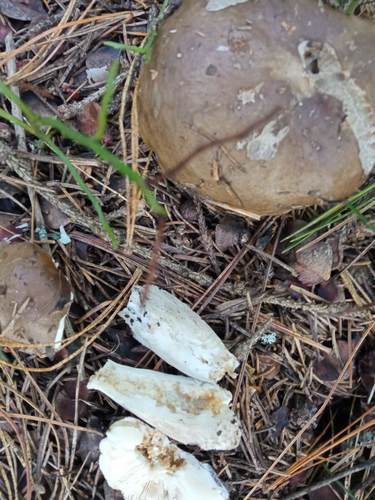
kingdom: Fungi
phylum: Basidiomycota
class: Agaricomycetes
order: Russulales
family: Russulaceae
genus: Russula
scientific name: Russula adusta
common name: Winecork brittlegill
